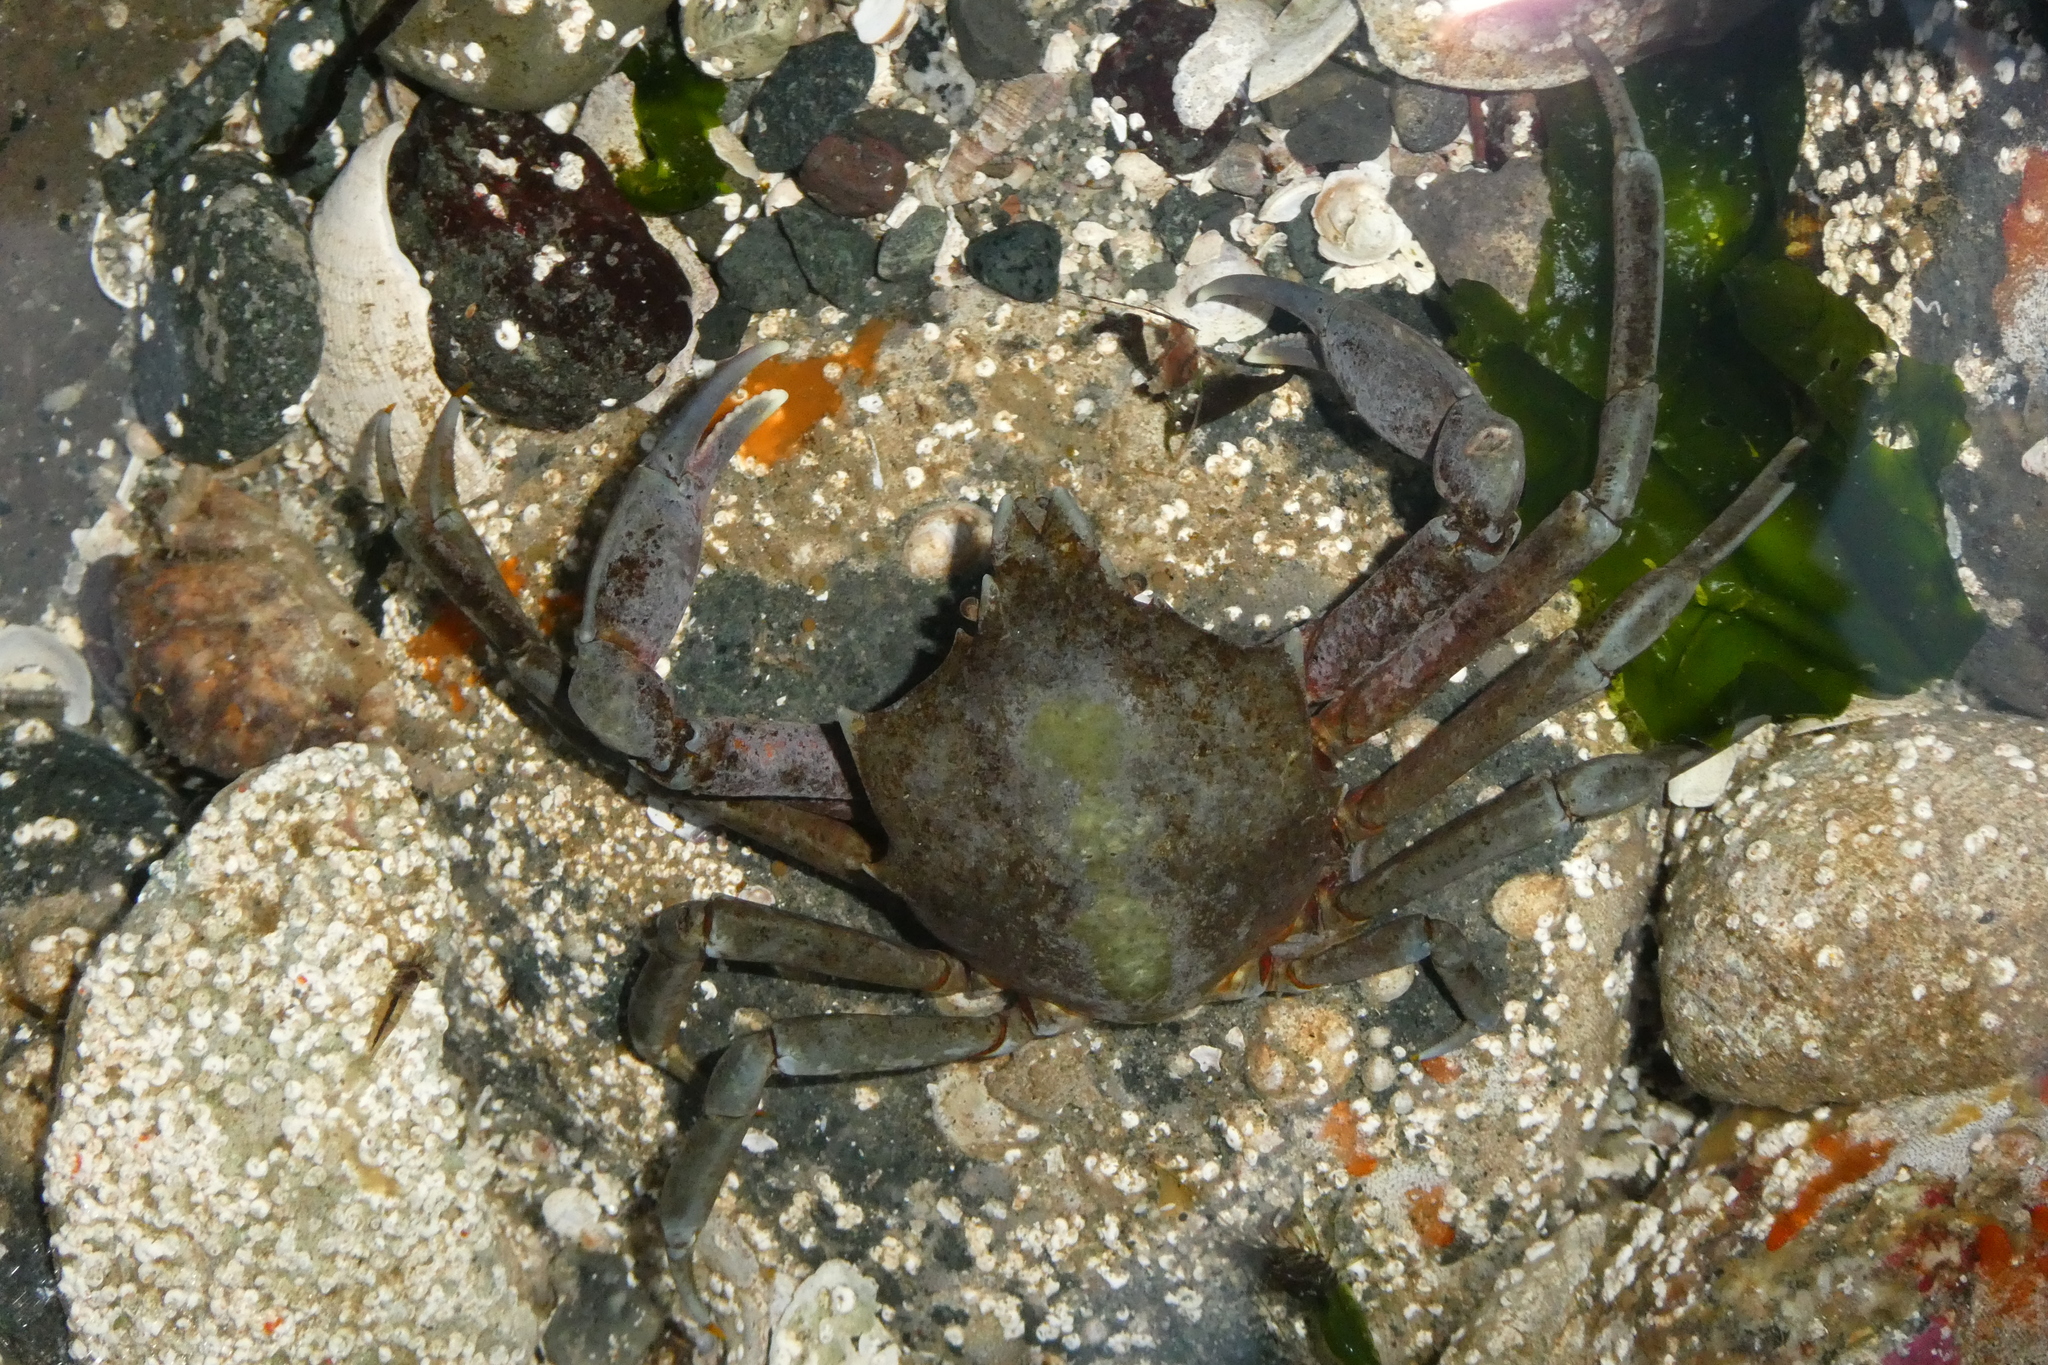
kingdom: Animalia
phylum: Arthropoda
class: Malacostraca
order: Decapoda
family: Epialtidae
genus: Pugettia
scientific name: Pugettia producta
